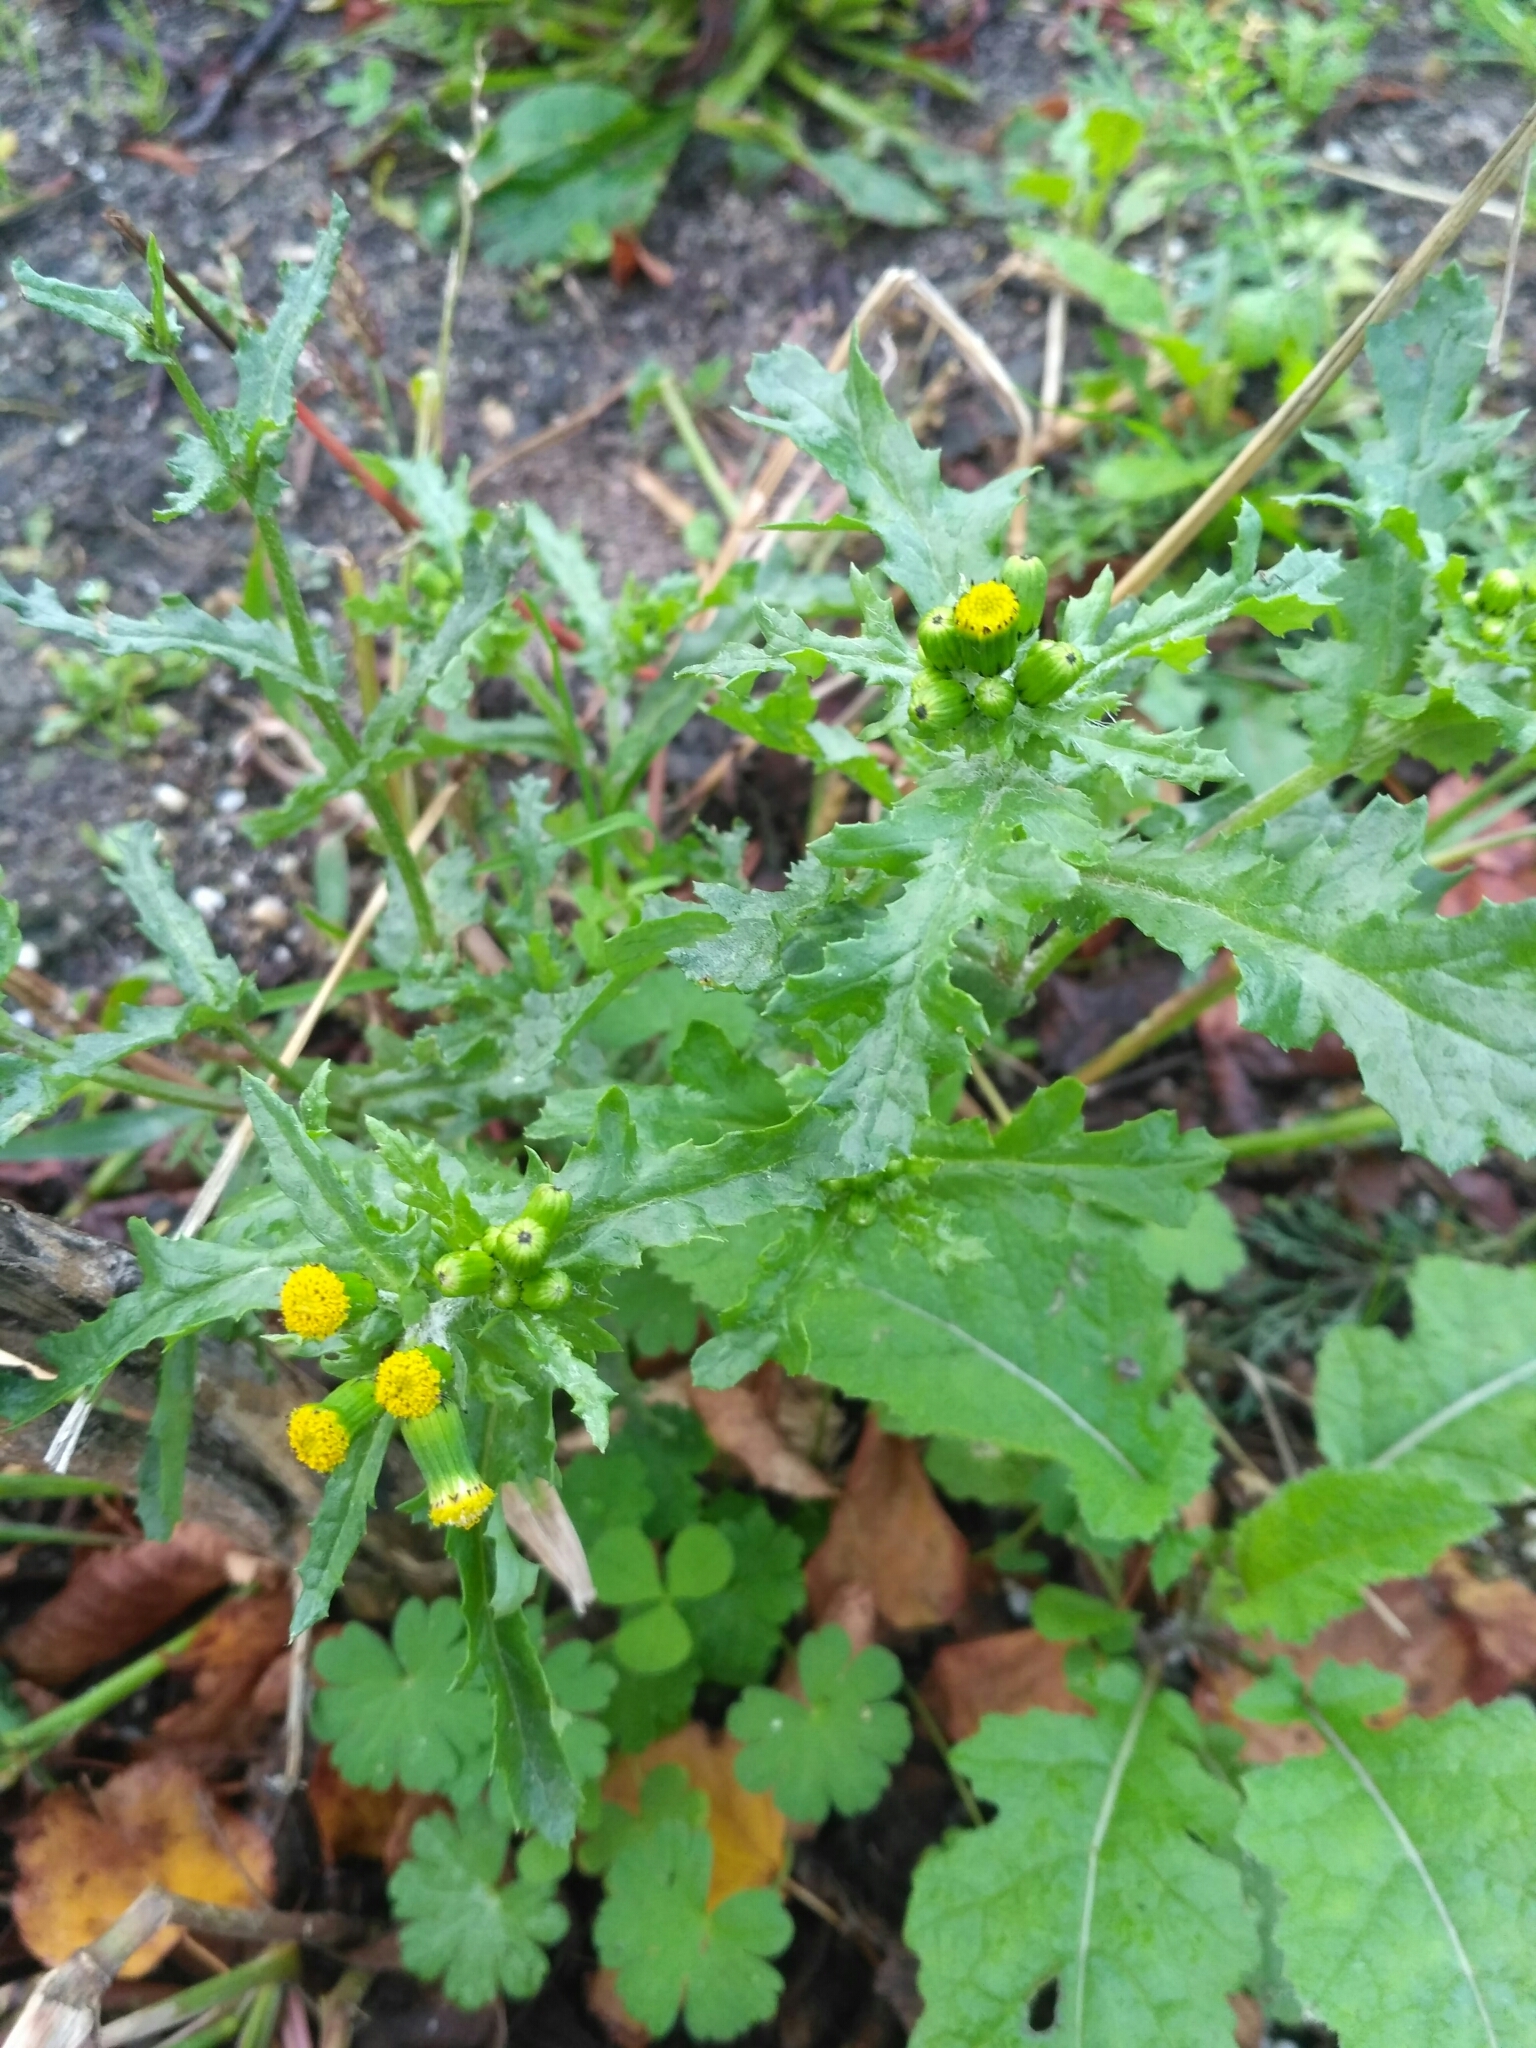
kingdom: Plantae
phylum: Tracheophyta
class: Magnoliopsida
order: Asterales
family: Asteraceae
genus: Senecio
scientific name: Senecio vulgaris
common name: Old-man-in-the-spring
